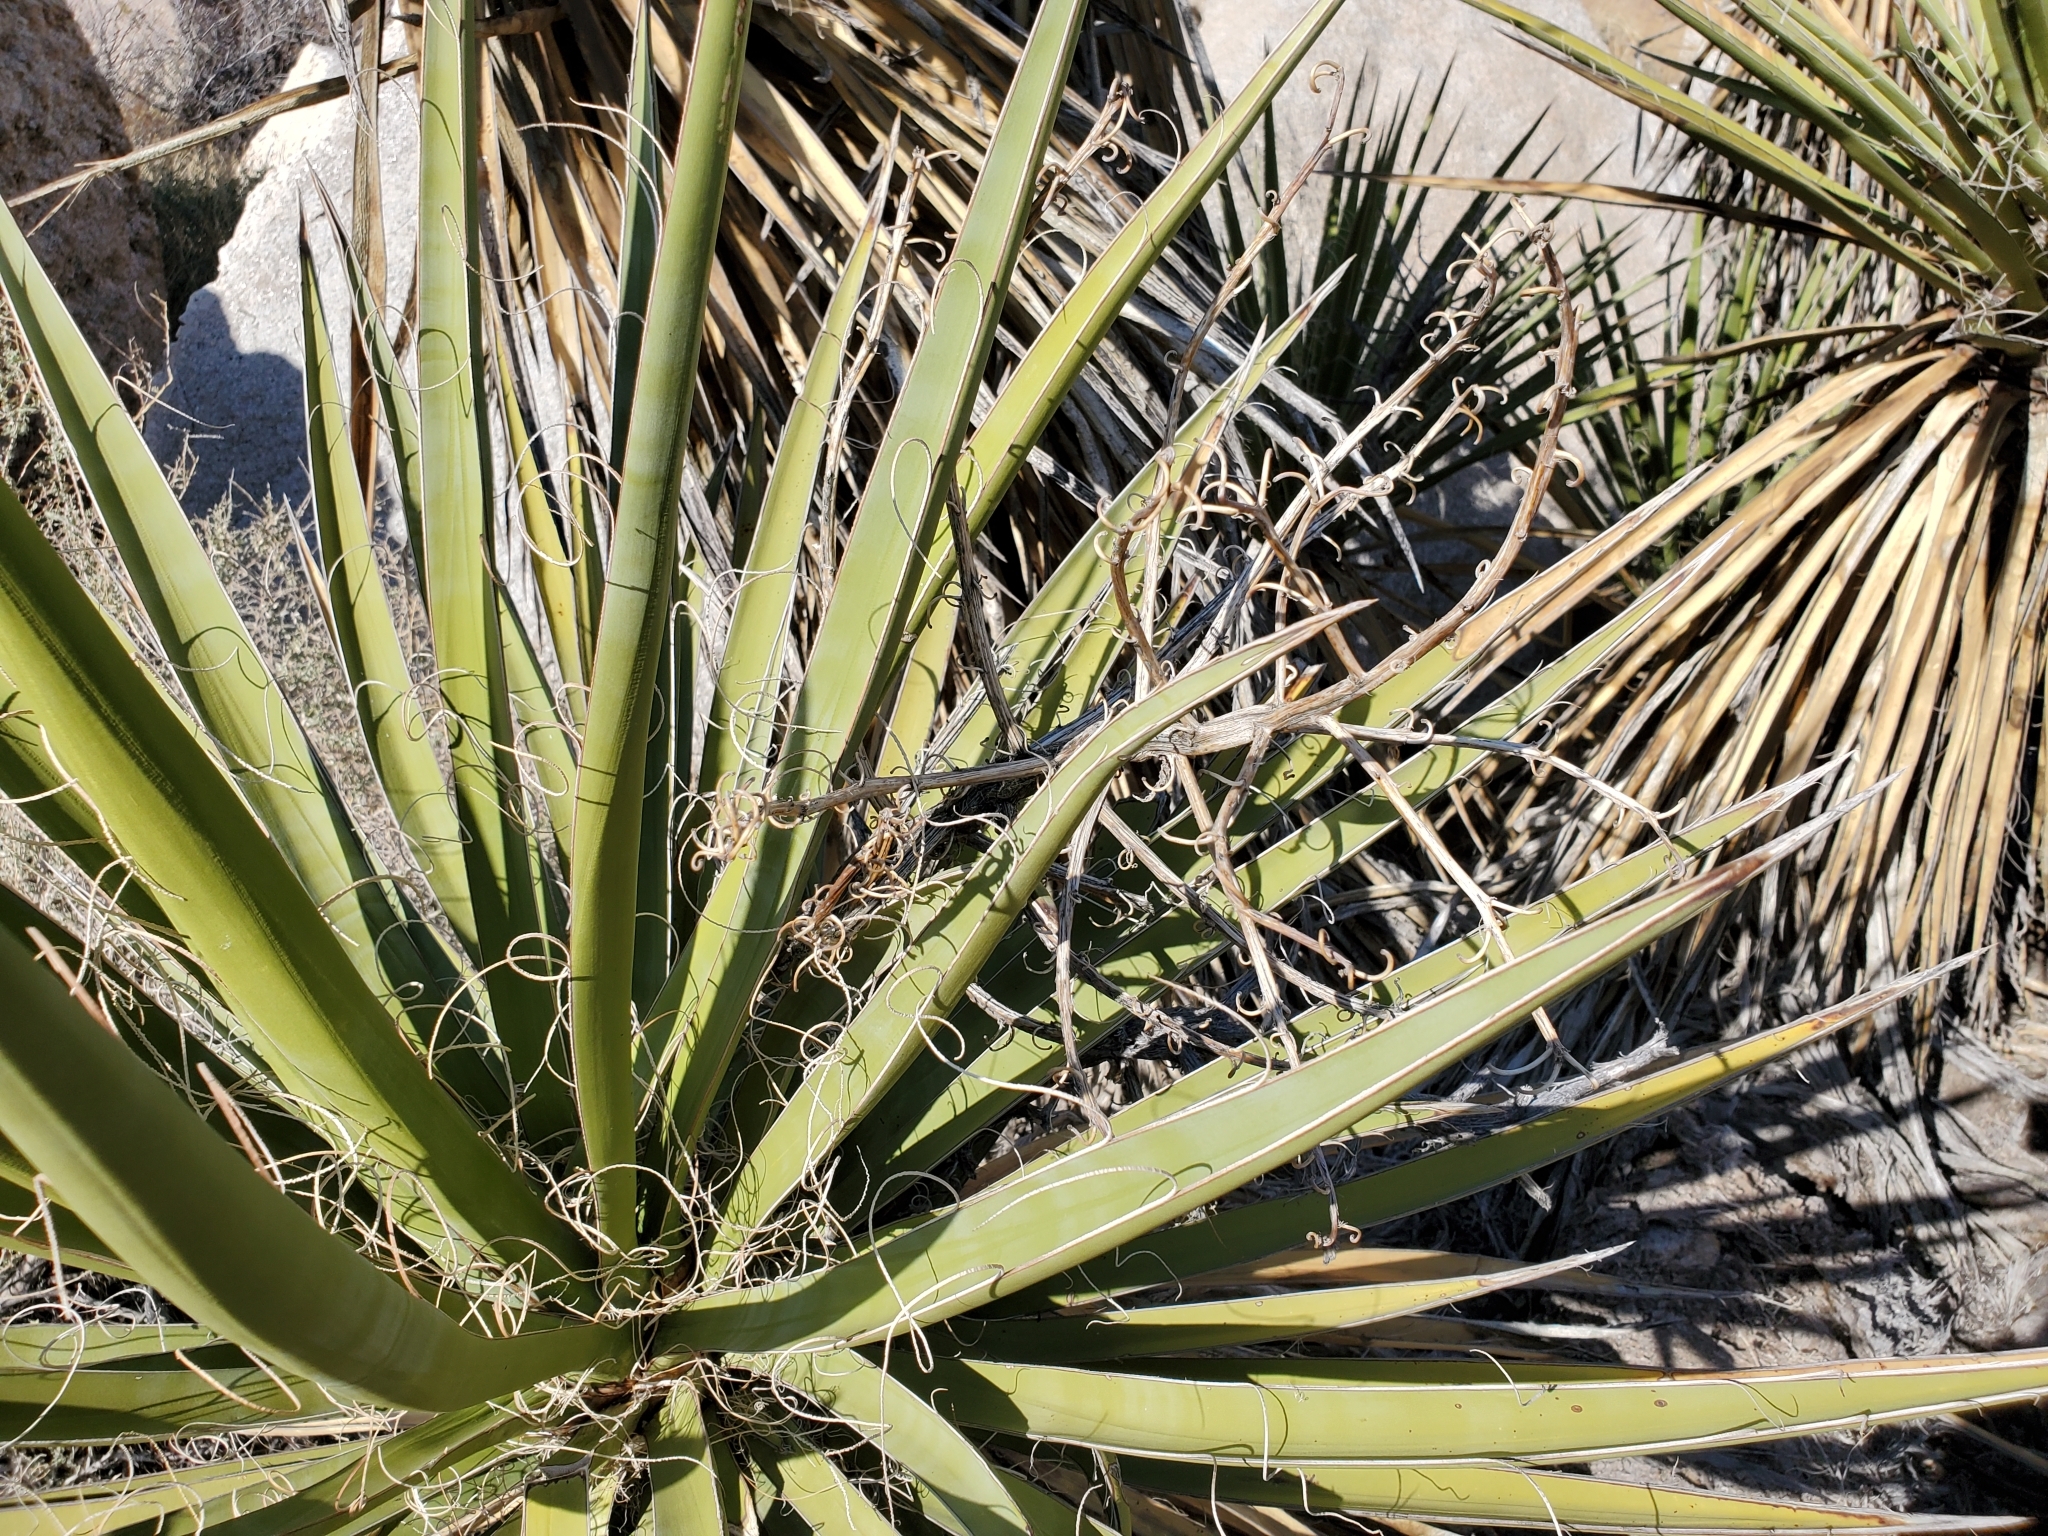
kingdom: Plantae
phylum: Tracheophyta
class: Liliopsida
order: Asparagales
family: Asparagaceae
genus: Yucca
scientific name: Yucca schidigera
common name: Mojave yucca
